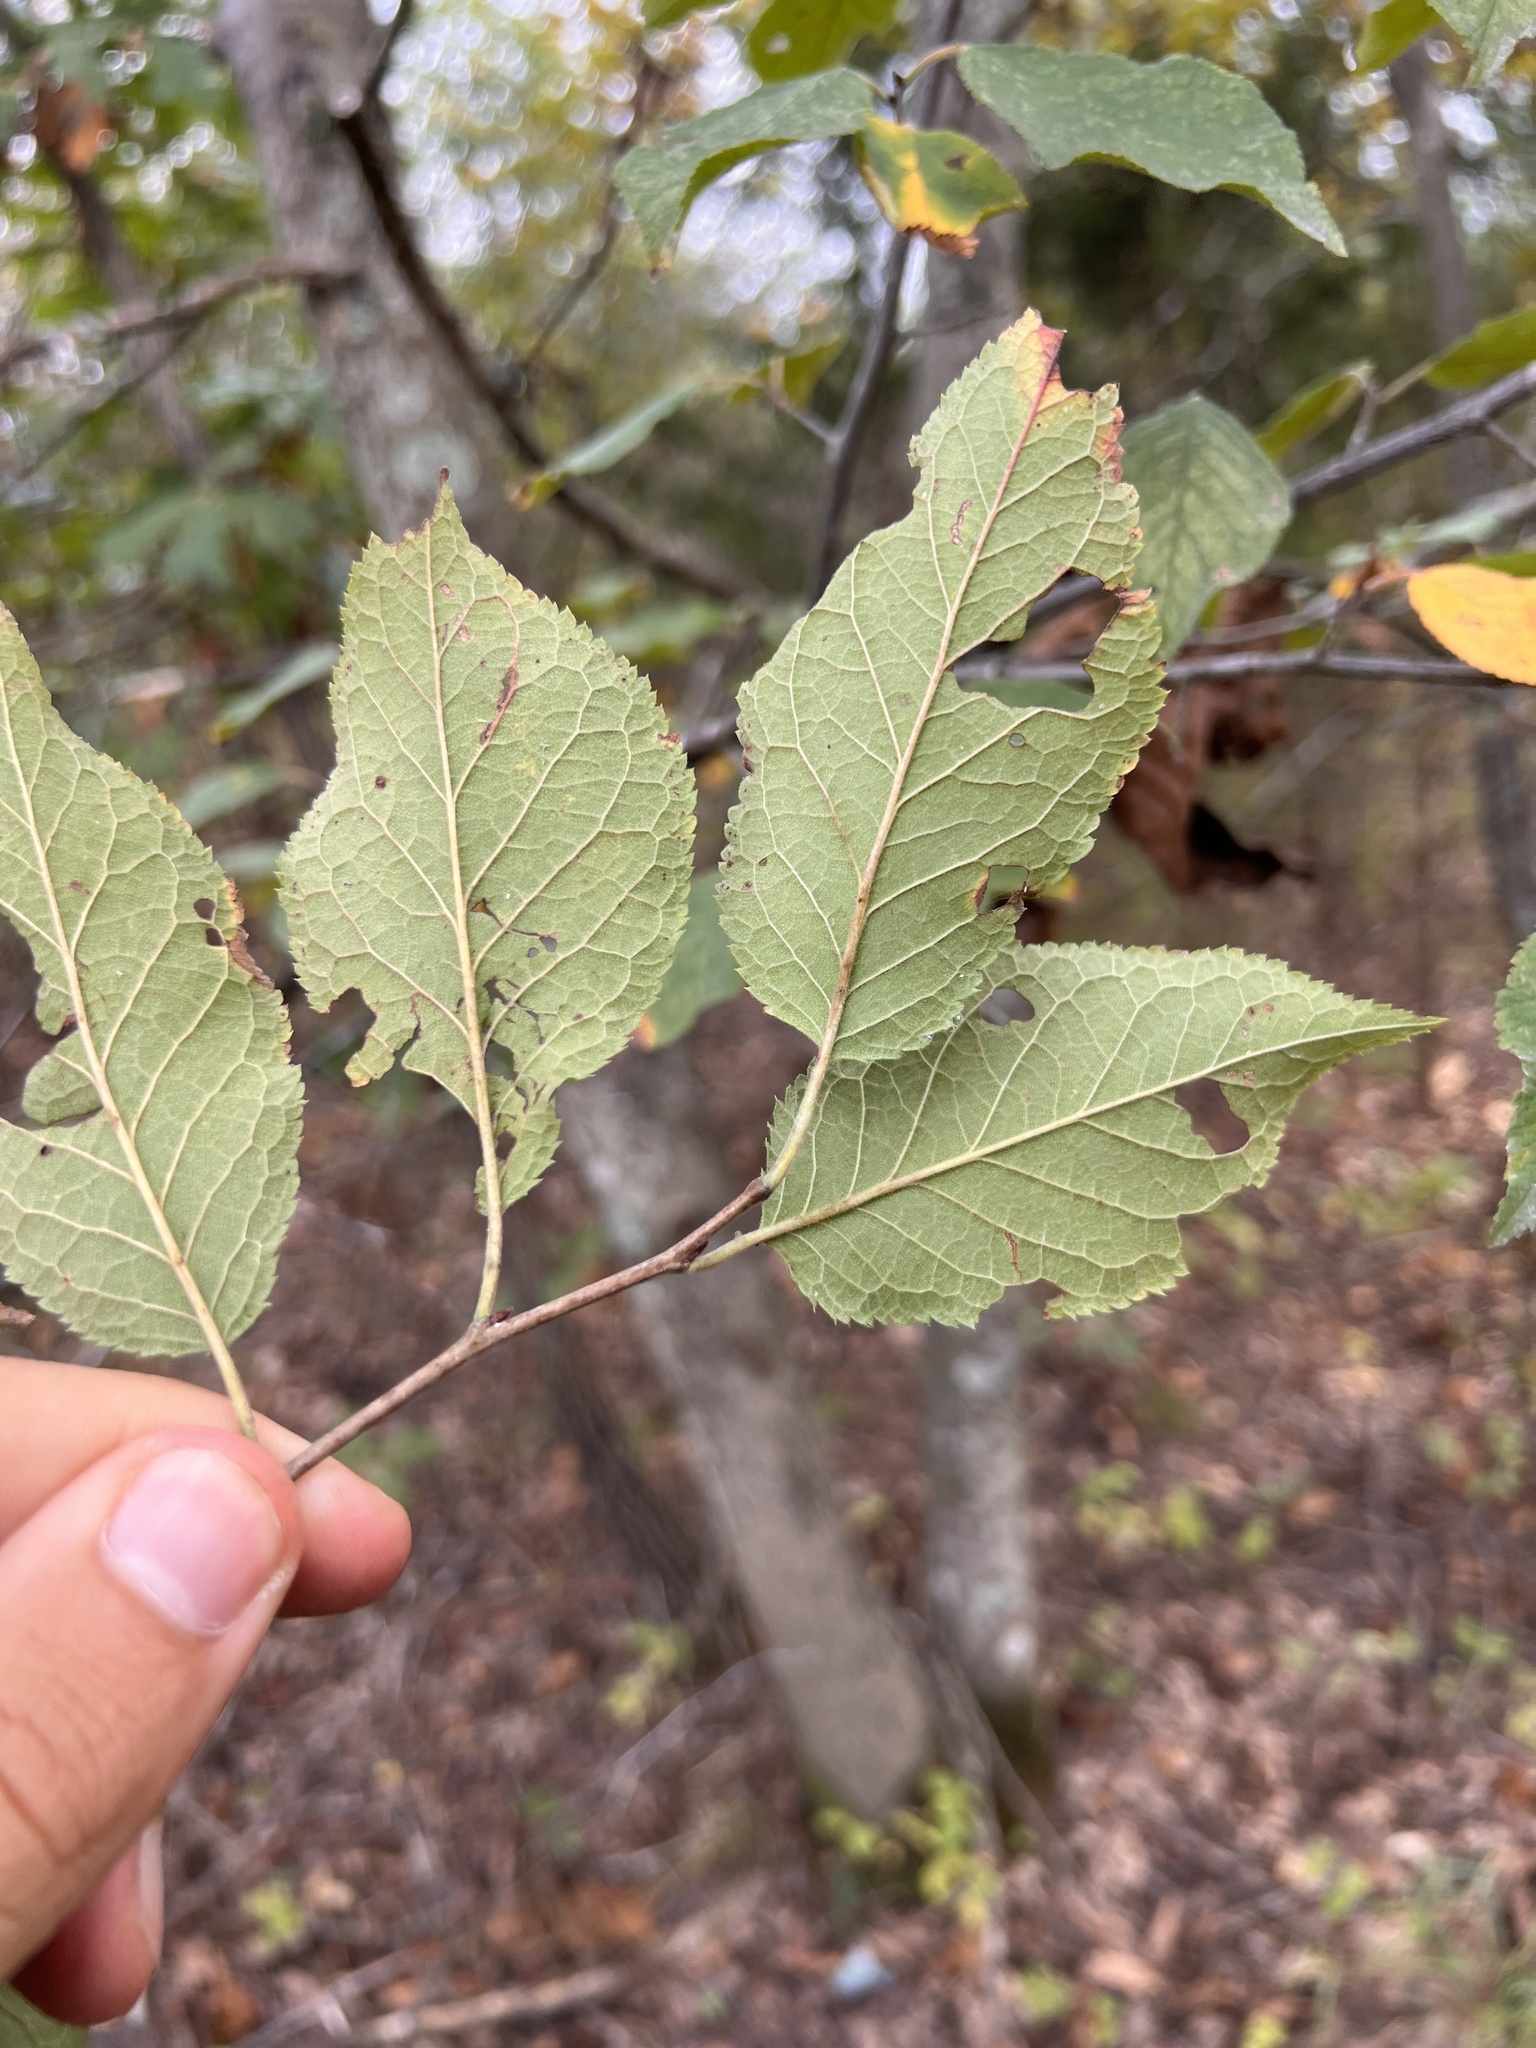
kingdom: Plantae
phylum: Tracheophyta
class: Magnoliopsida
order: Rosales
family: Rosaceae
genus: Prunus
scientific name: Prunus americana
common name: American plum
